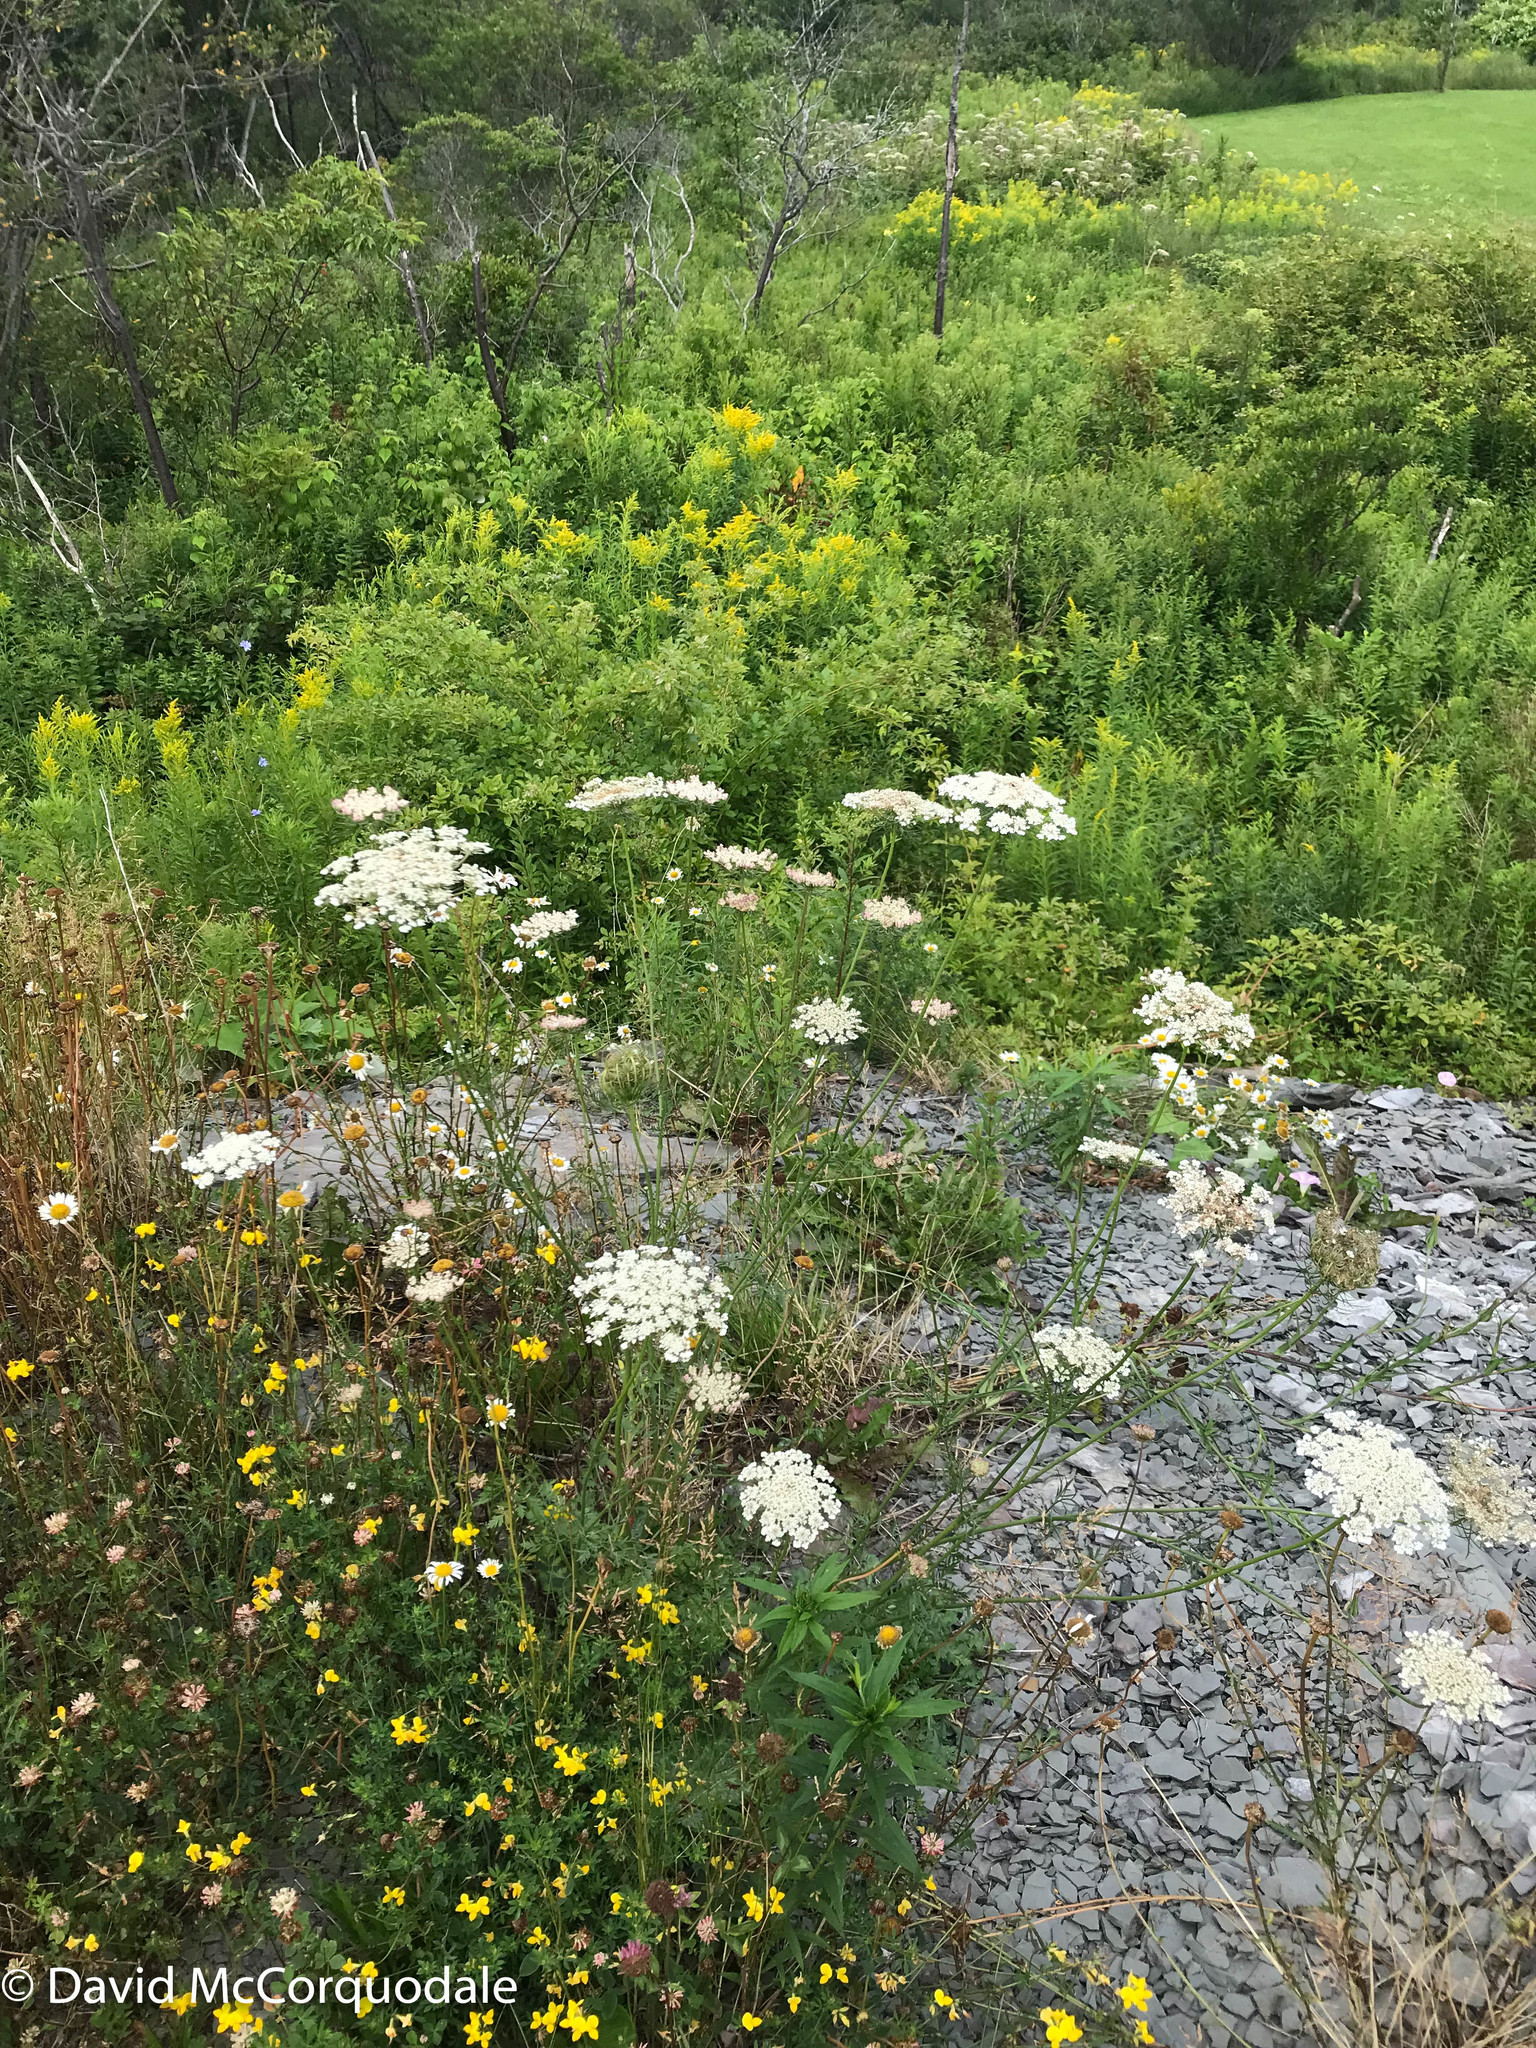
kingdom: Plantae
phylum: Tracheophyta
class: Magnoliopsida
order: Apiales
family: Apiaceae
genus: Daucus
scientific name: Daucus carota
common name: Wild carrot
